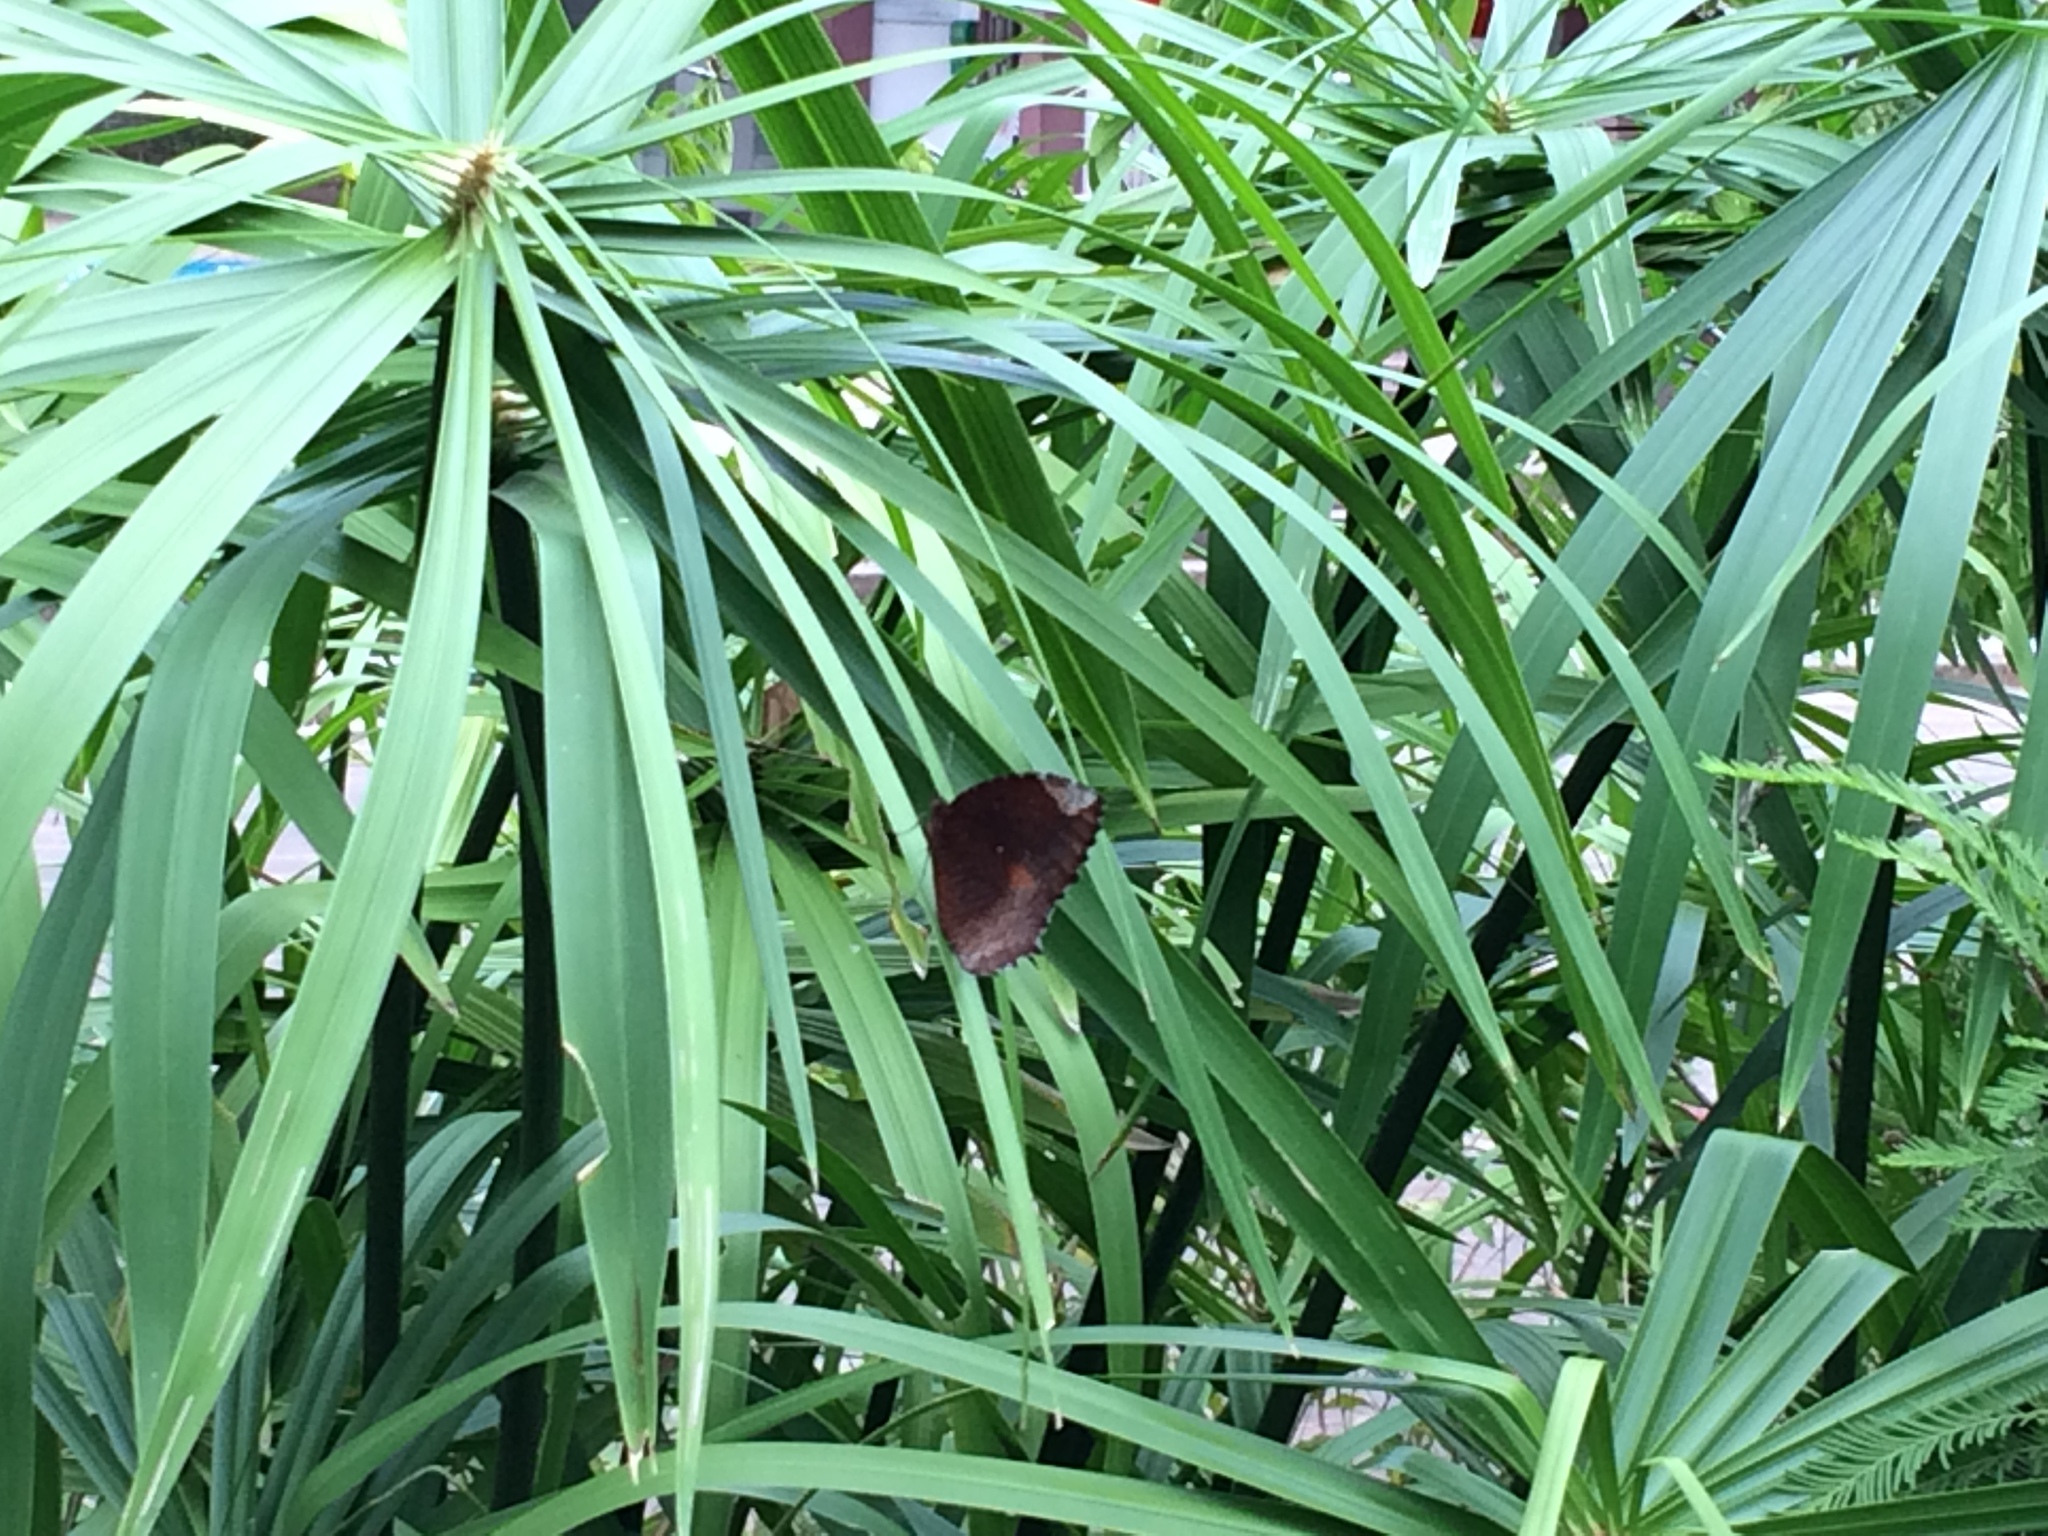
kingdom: Animalia
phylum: Arthropoda
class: Insecta
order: Lepidoptera
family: Nymphalidae
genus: Elymnias
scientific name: Elymnias hypermnestra
